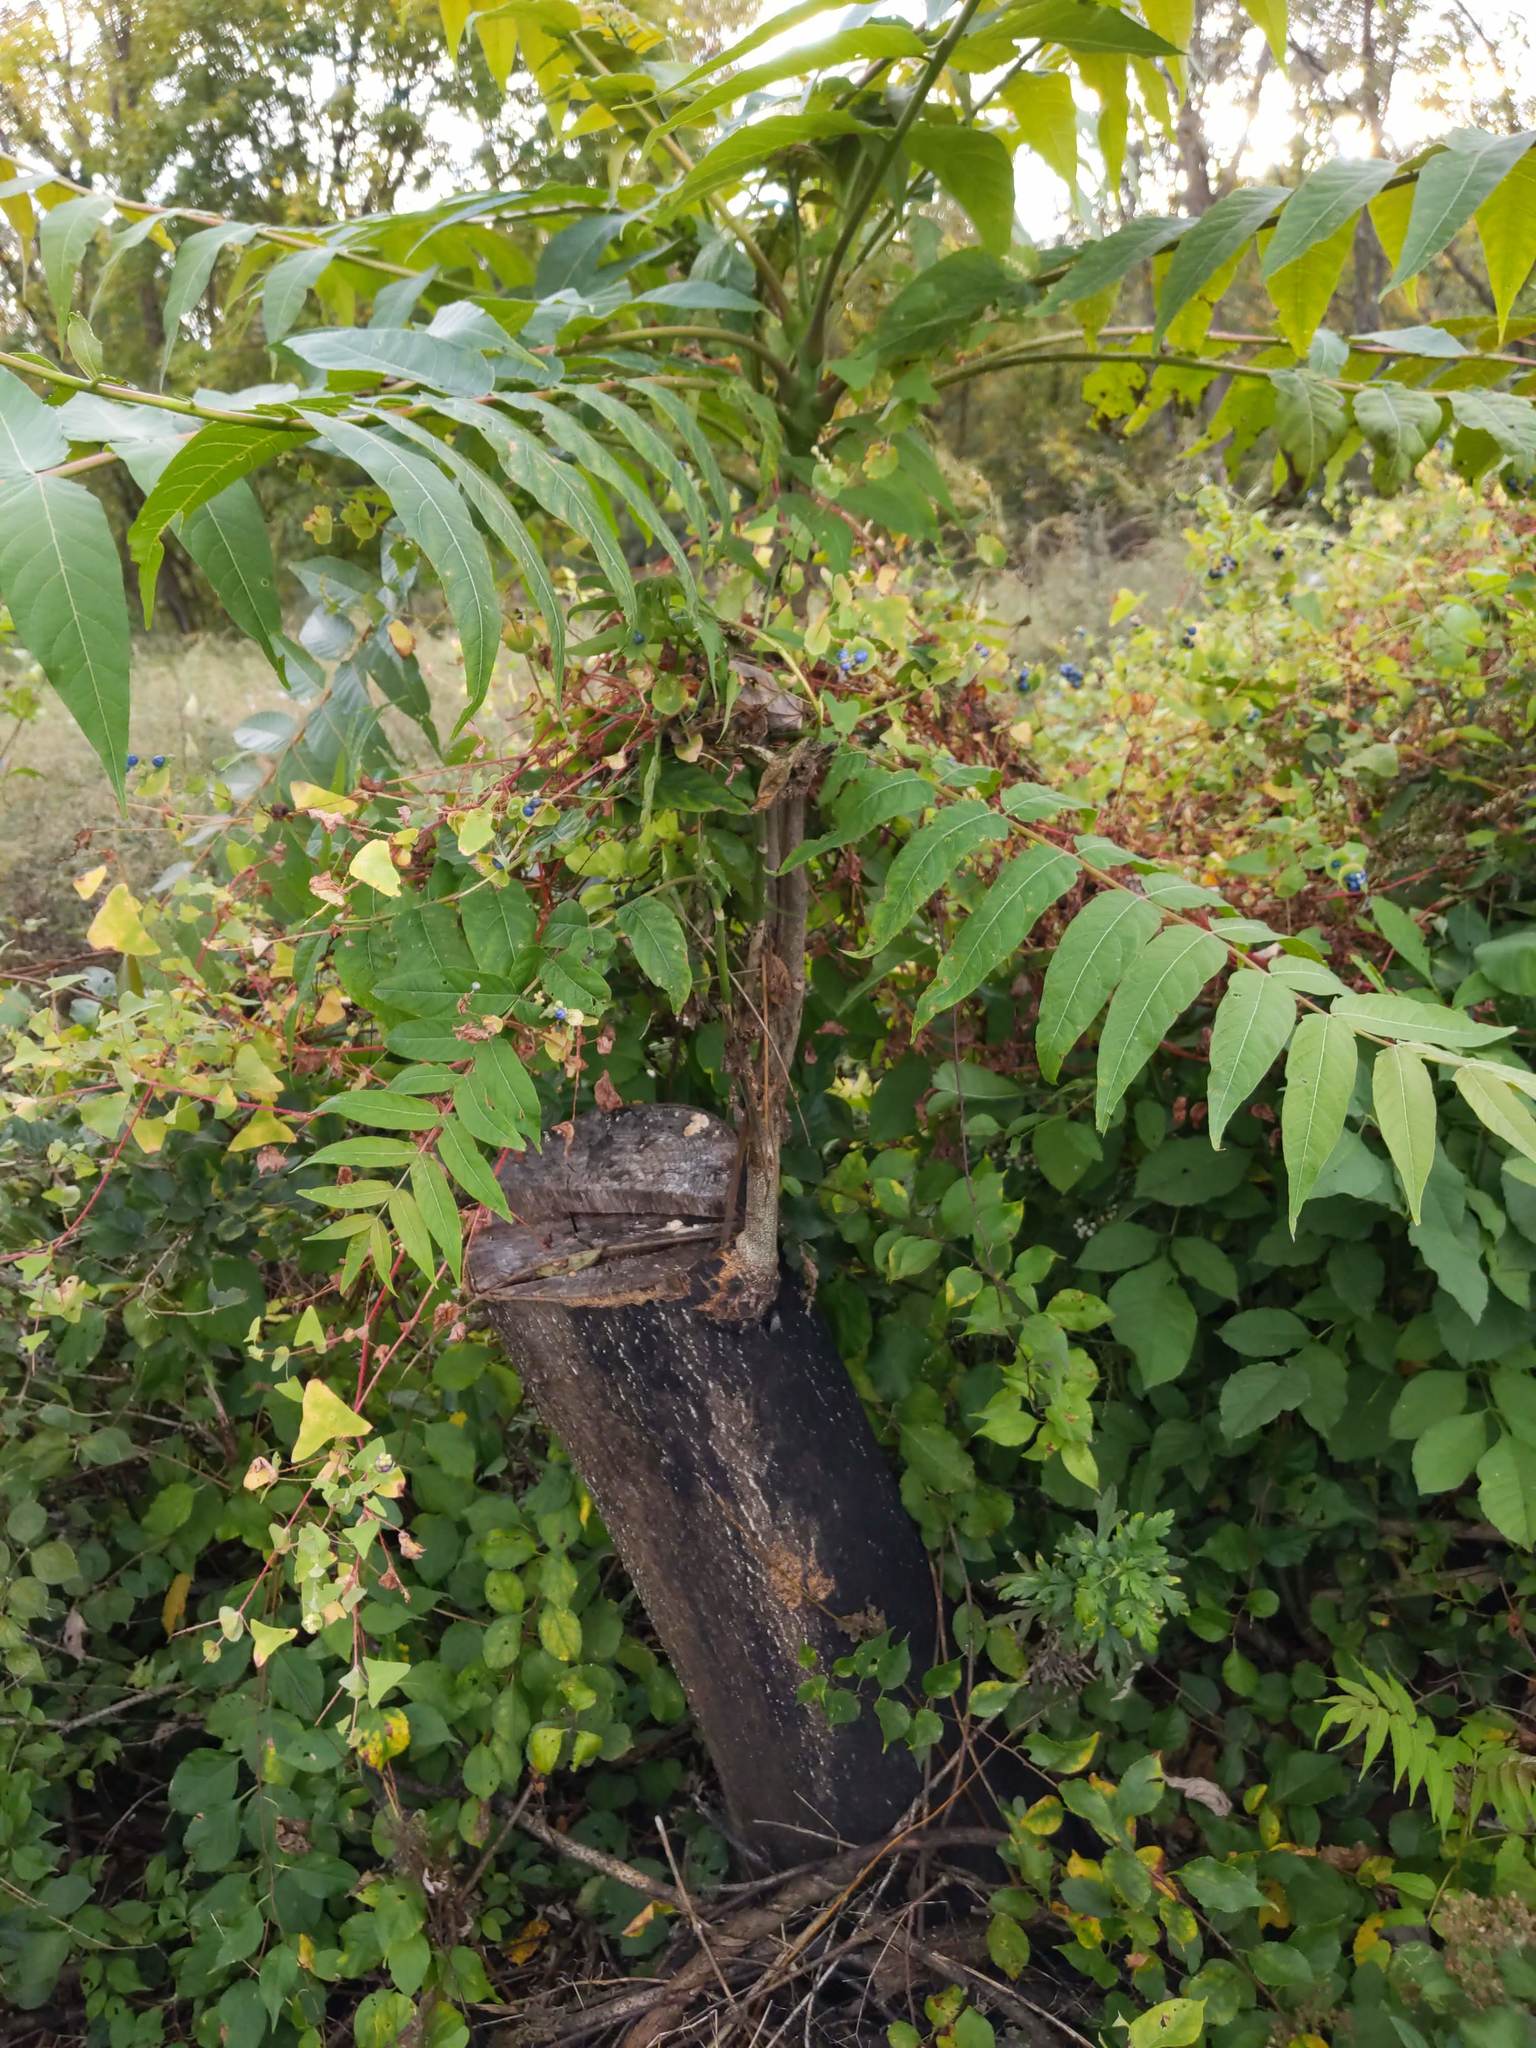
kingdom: Plantae
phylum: Tracheophyta
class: Magnoliopsida
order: Sapindales
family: Simaroubaceae
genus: Ailanthus
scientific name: Ailanthus altissima
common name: Tree-of-heaven
